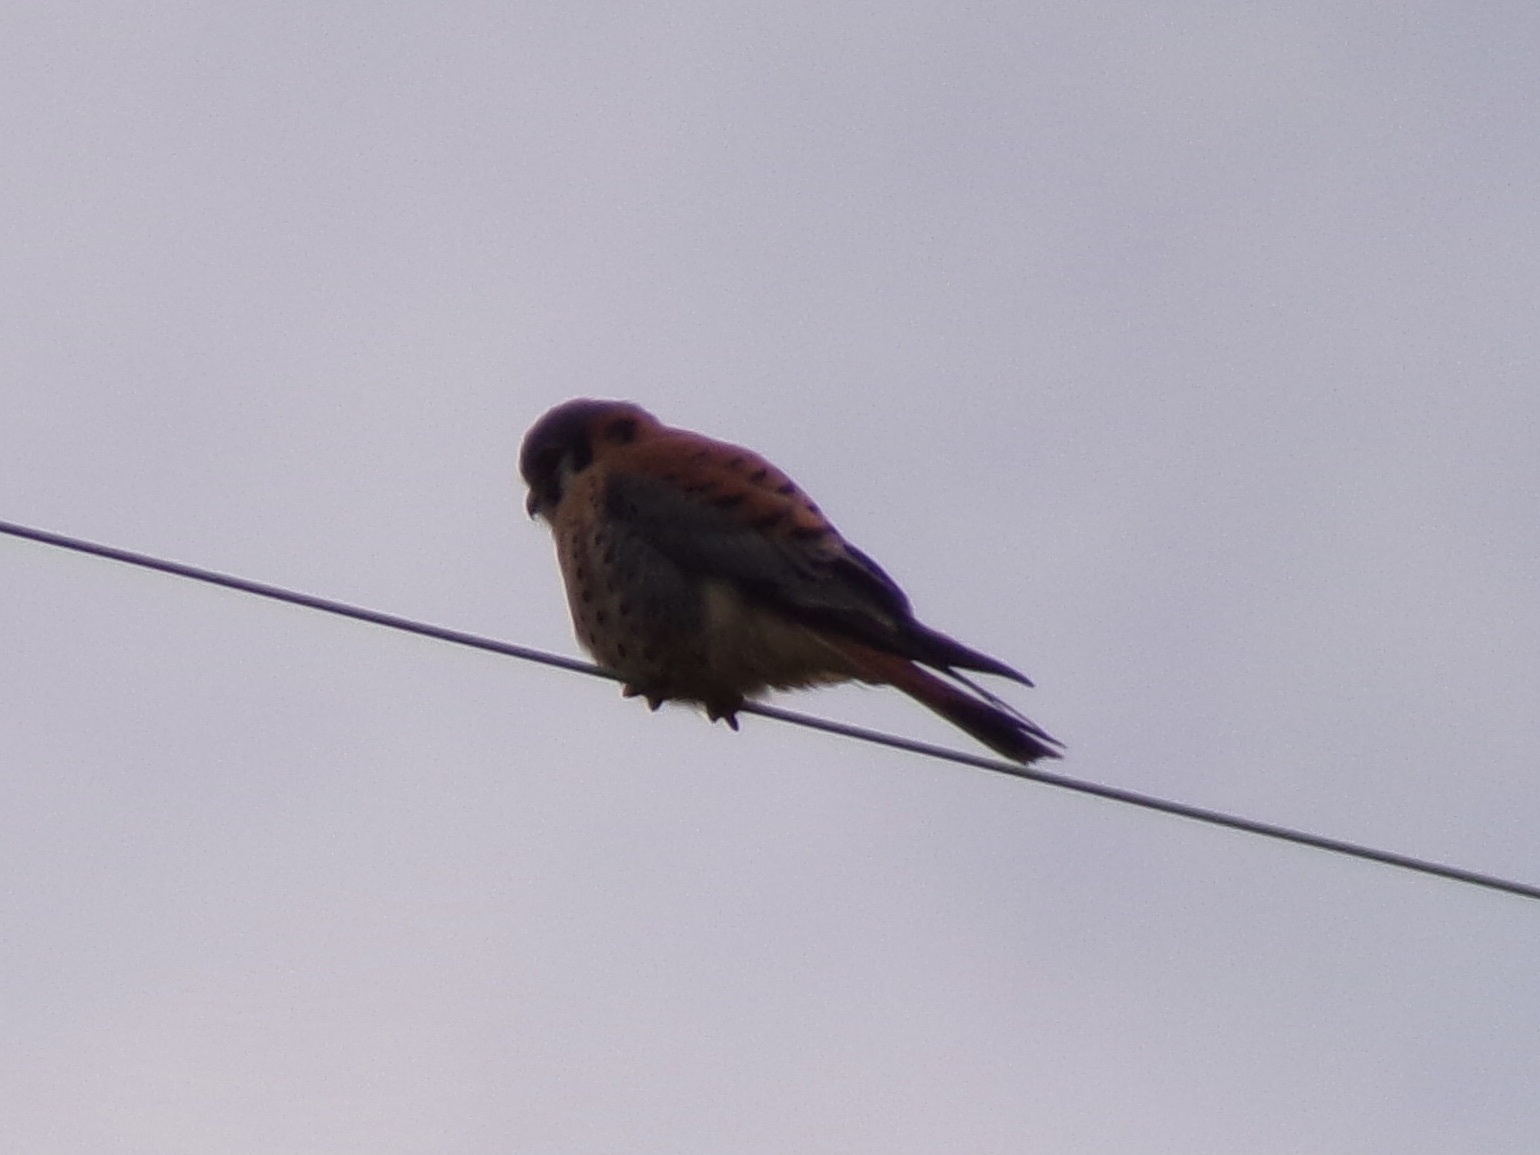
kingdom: Animalia
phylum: Chordata
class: Aves
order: Falconiformes
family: Falconidae
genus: Falco
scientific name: Falco sparverius
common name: American kestrel
